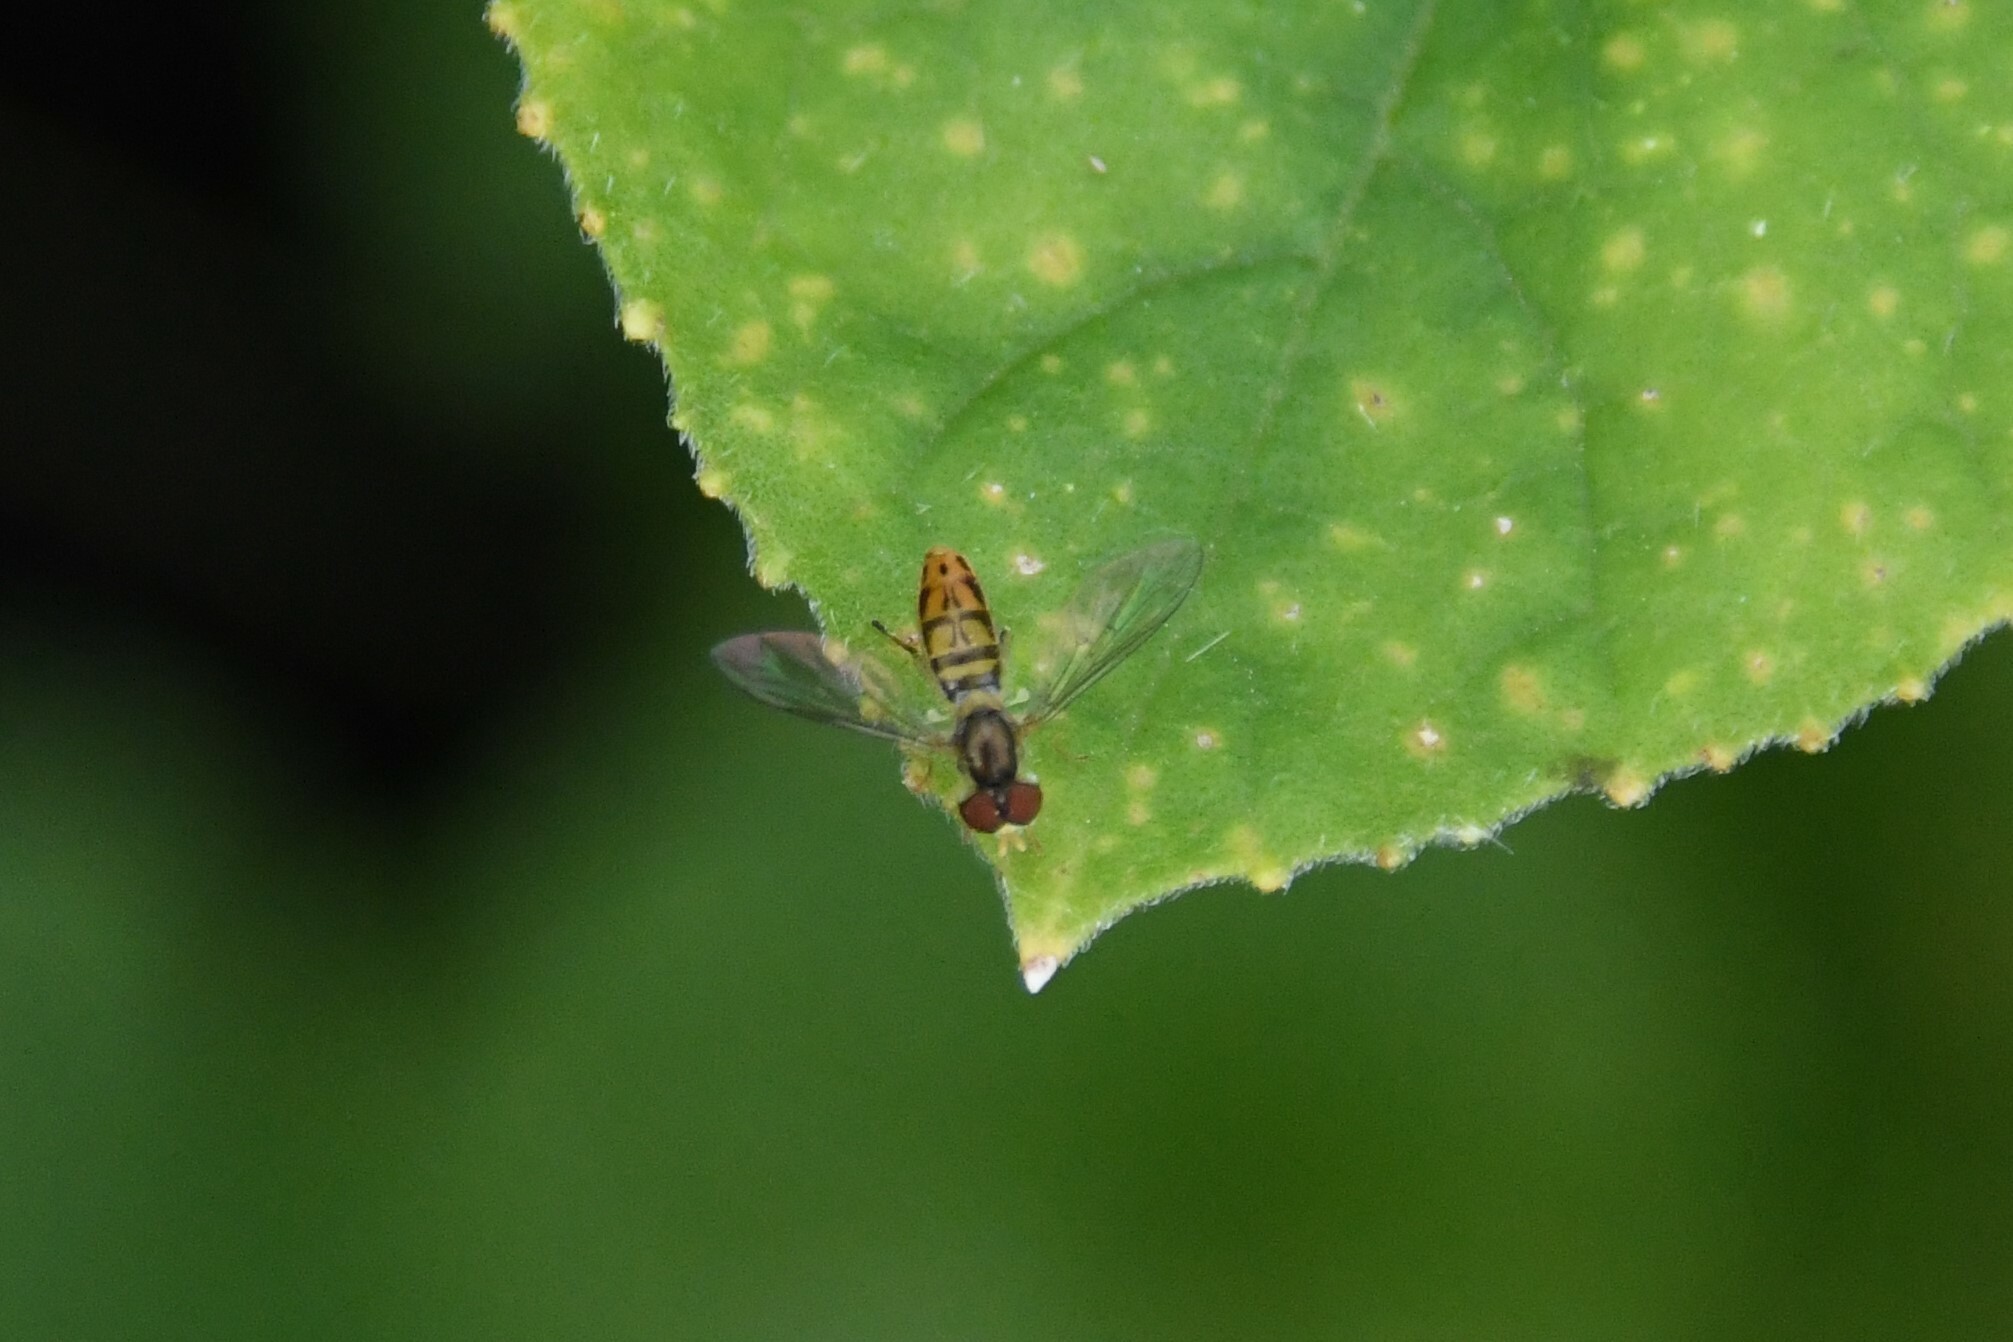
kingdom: Animalia
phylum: Arthropoda
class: Insecta
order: Diptera
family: Syrphidae
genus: Toxomerus
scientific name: Toxomerus marginatus
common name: Syrphid fly
